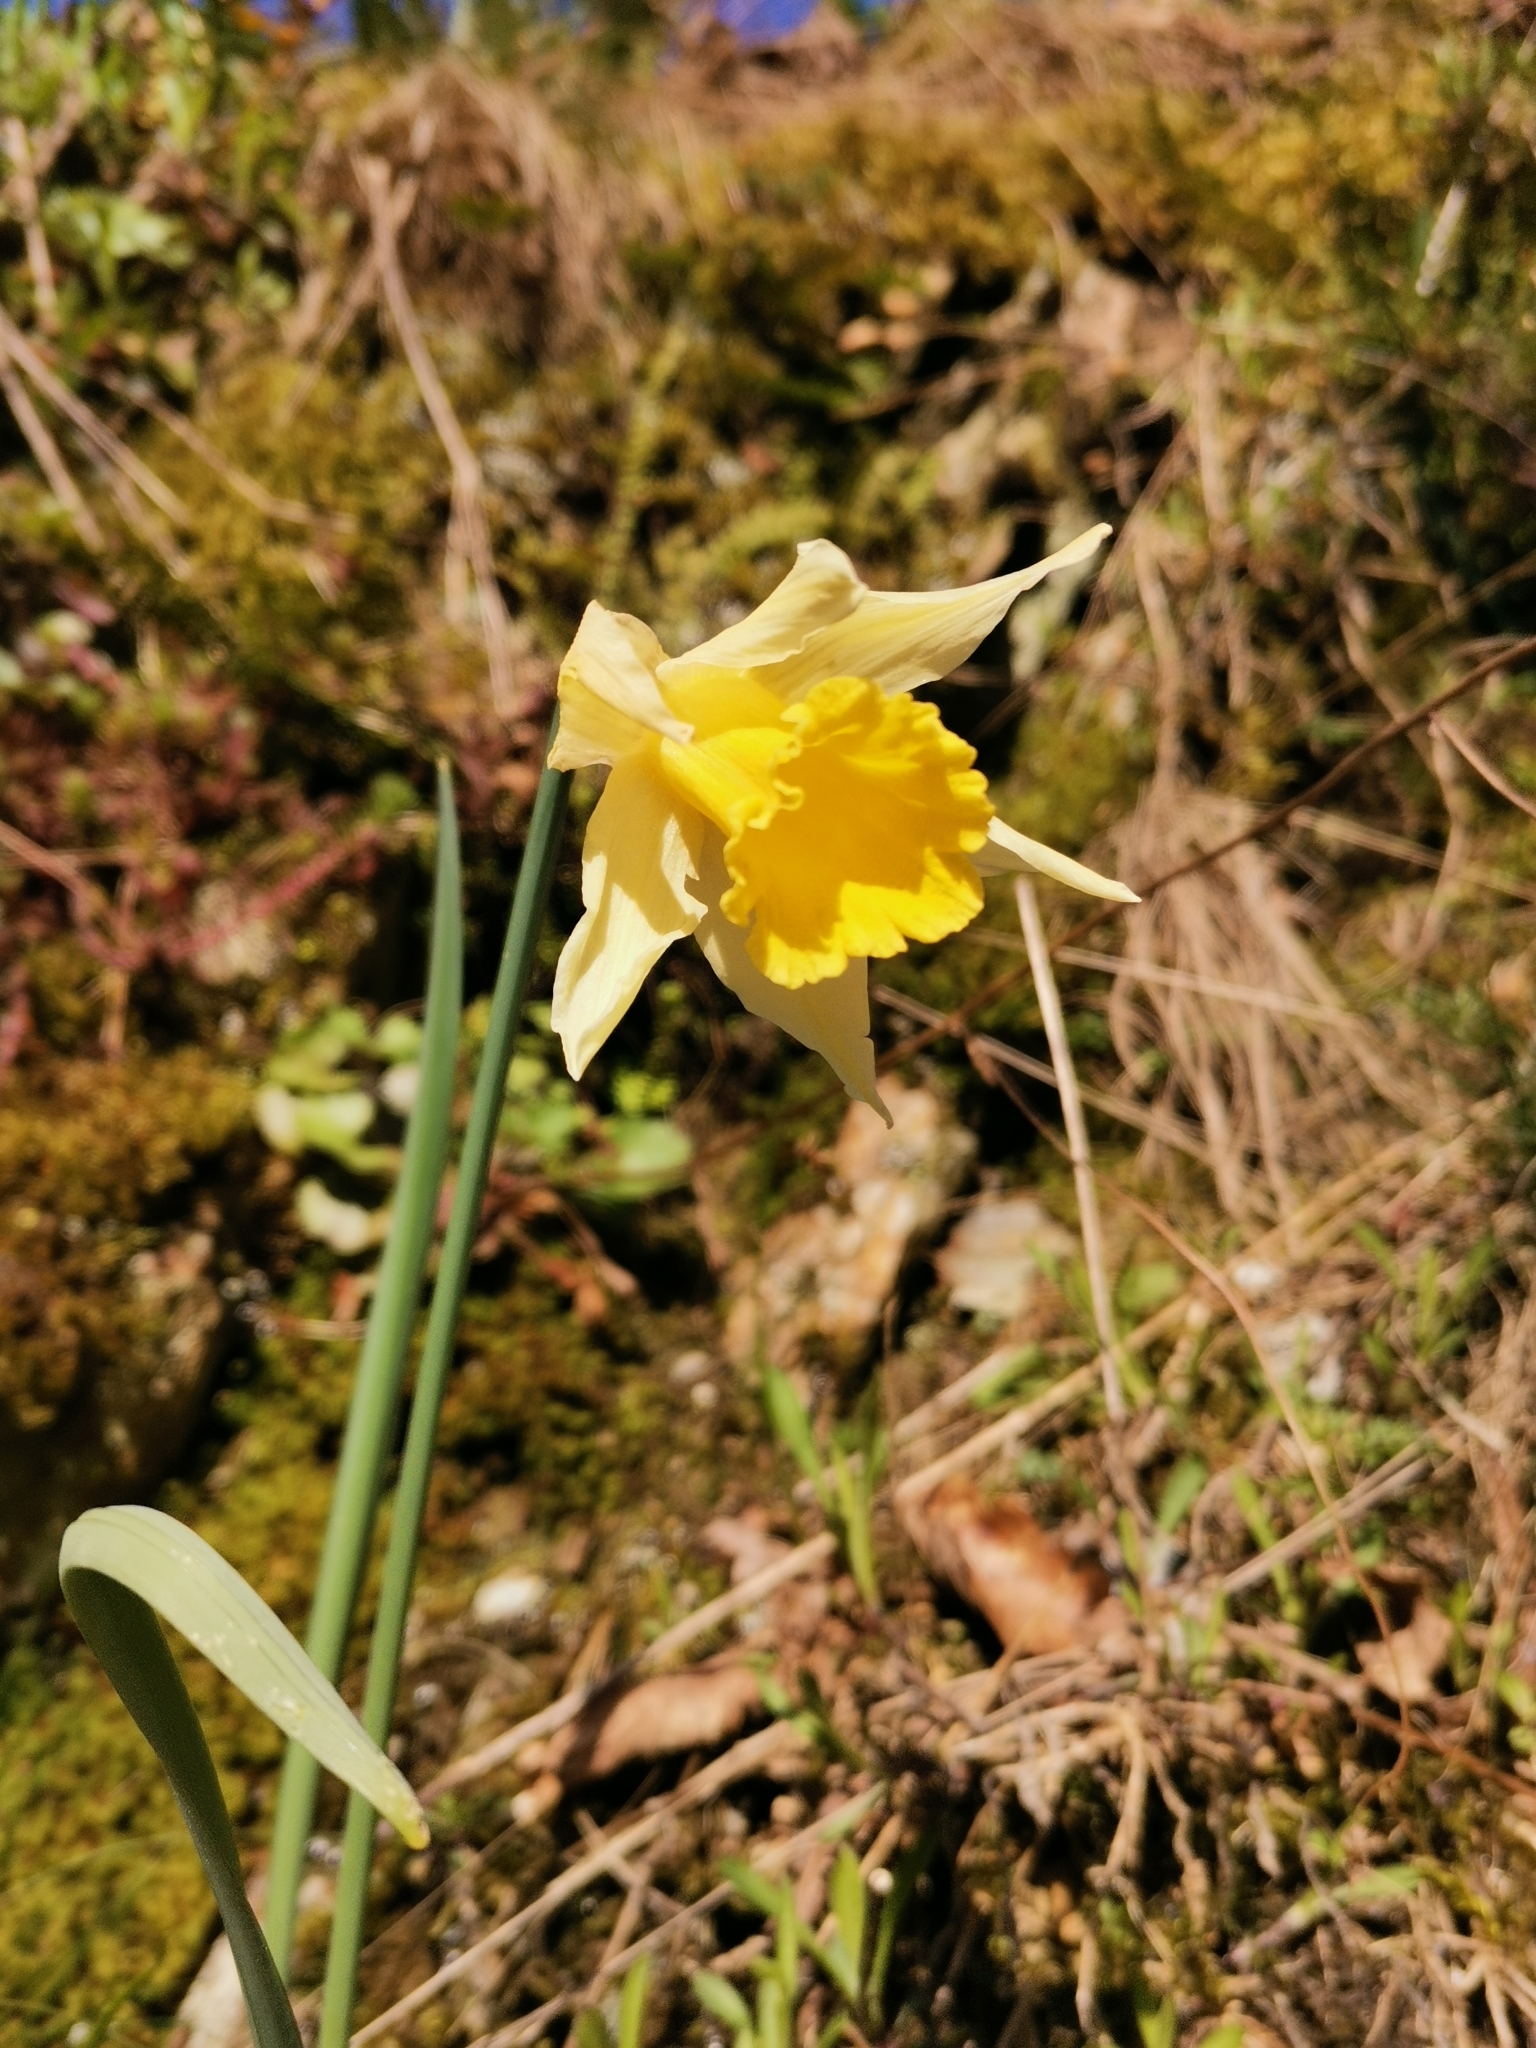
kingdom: Plantae
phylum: Tracheophyta
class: Liliopsida
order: Asparagales
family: Amaryllidaceae
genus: Narcissus
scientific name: Narcissus pseudonarcissus
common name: Daffodil
